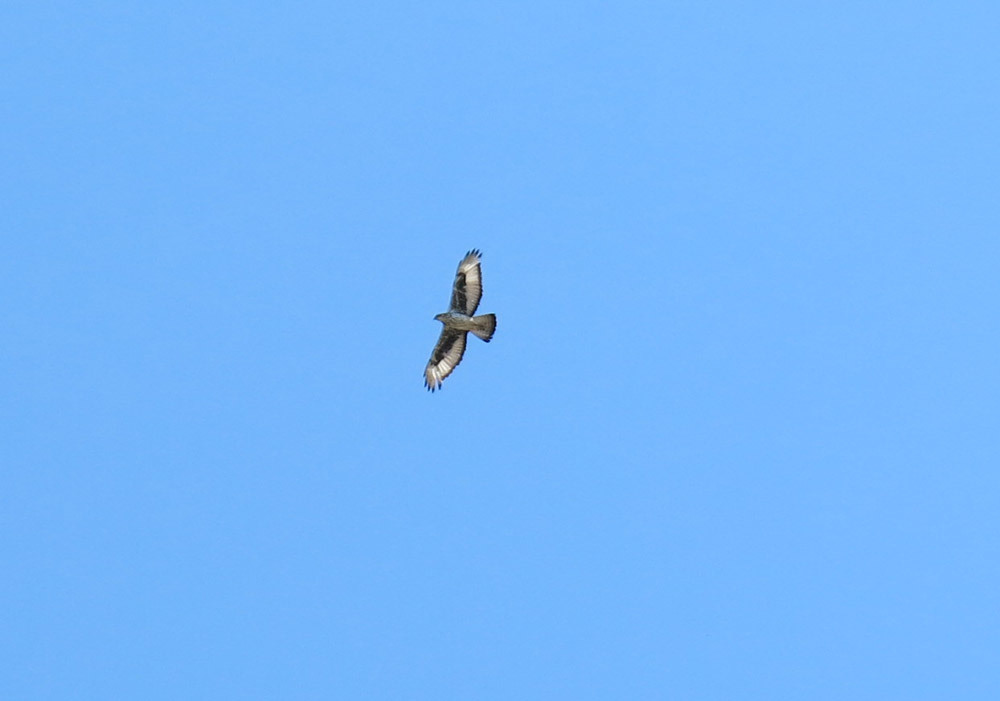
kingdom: Animalia
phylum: Chordata
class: Aves
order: Accipitriformes
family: Accipitridae
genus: Aquila
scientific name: Aquila spilogaster
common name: African hawk-eagle
